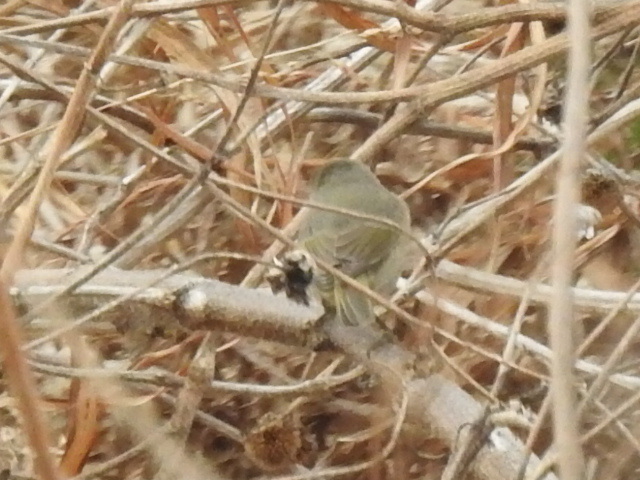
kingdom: Animalia
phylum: Chordata
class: Aves
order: Passeriformes
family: Parulidae
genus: Leiothlypis
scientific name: Leiothlypis celata
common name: Orange-crowned warbler
